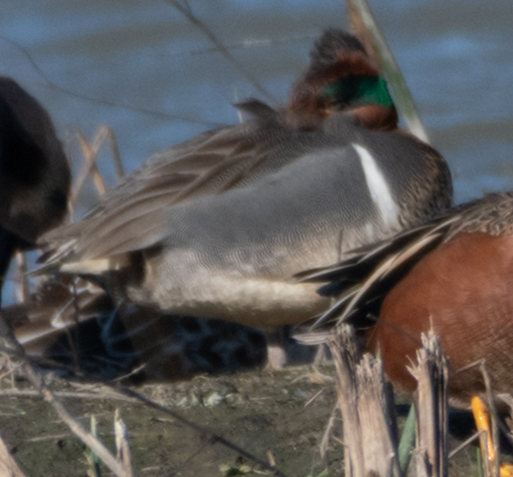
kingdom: Animalia
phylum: Chordata
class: Aves
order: Anseriformes
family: Anatidae
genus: Anas
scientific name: Anas crecca
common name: Eurasian teal
